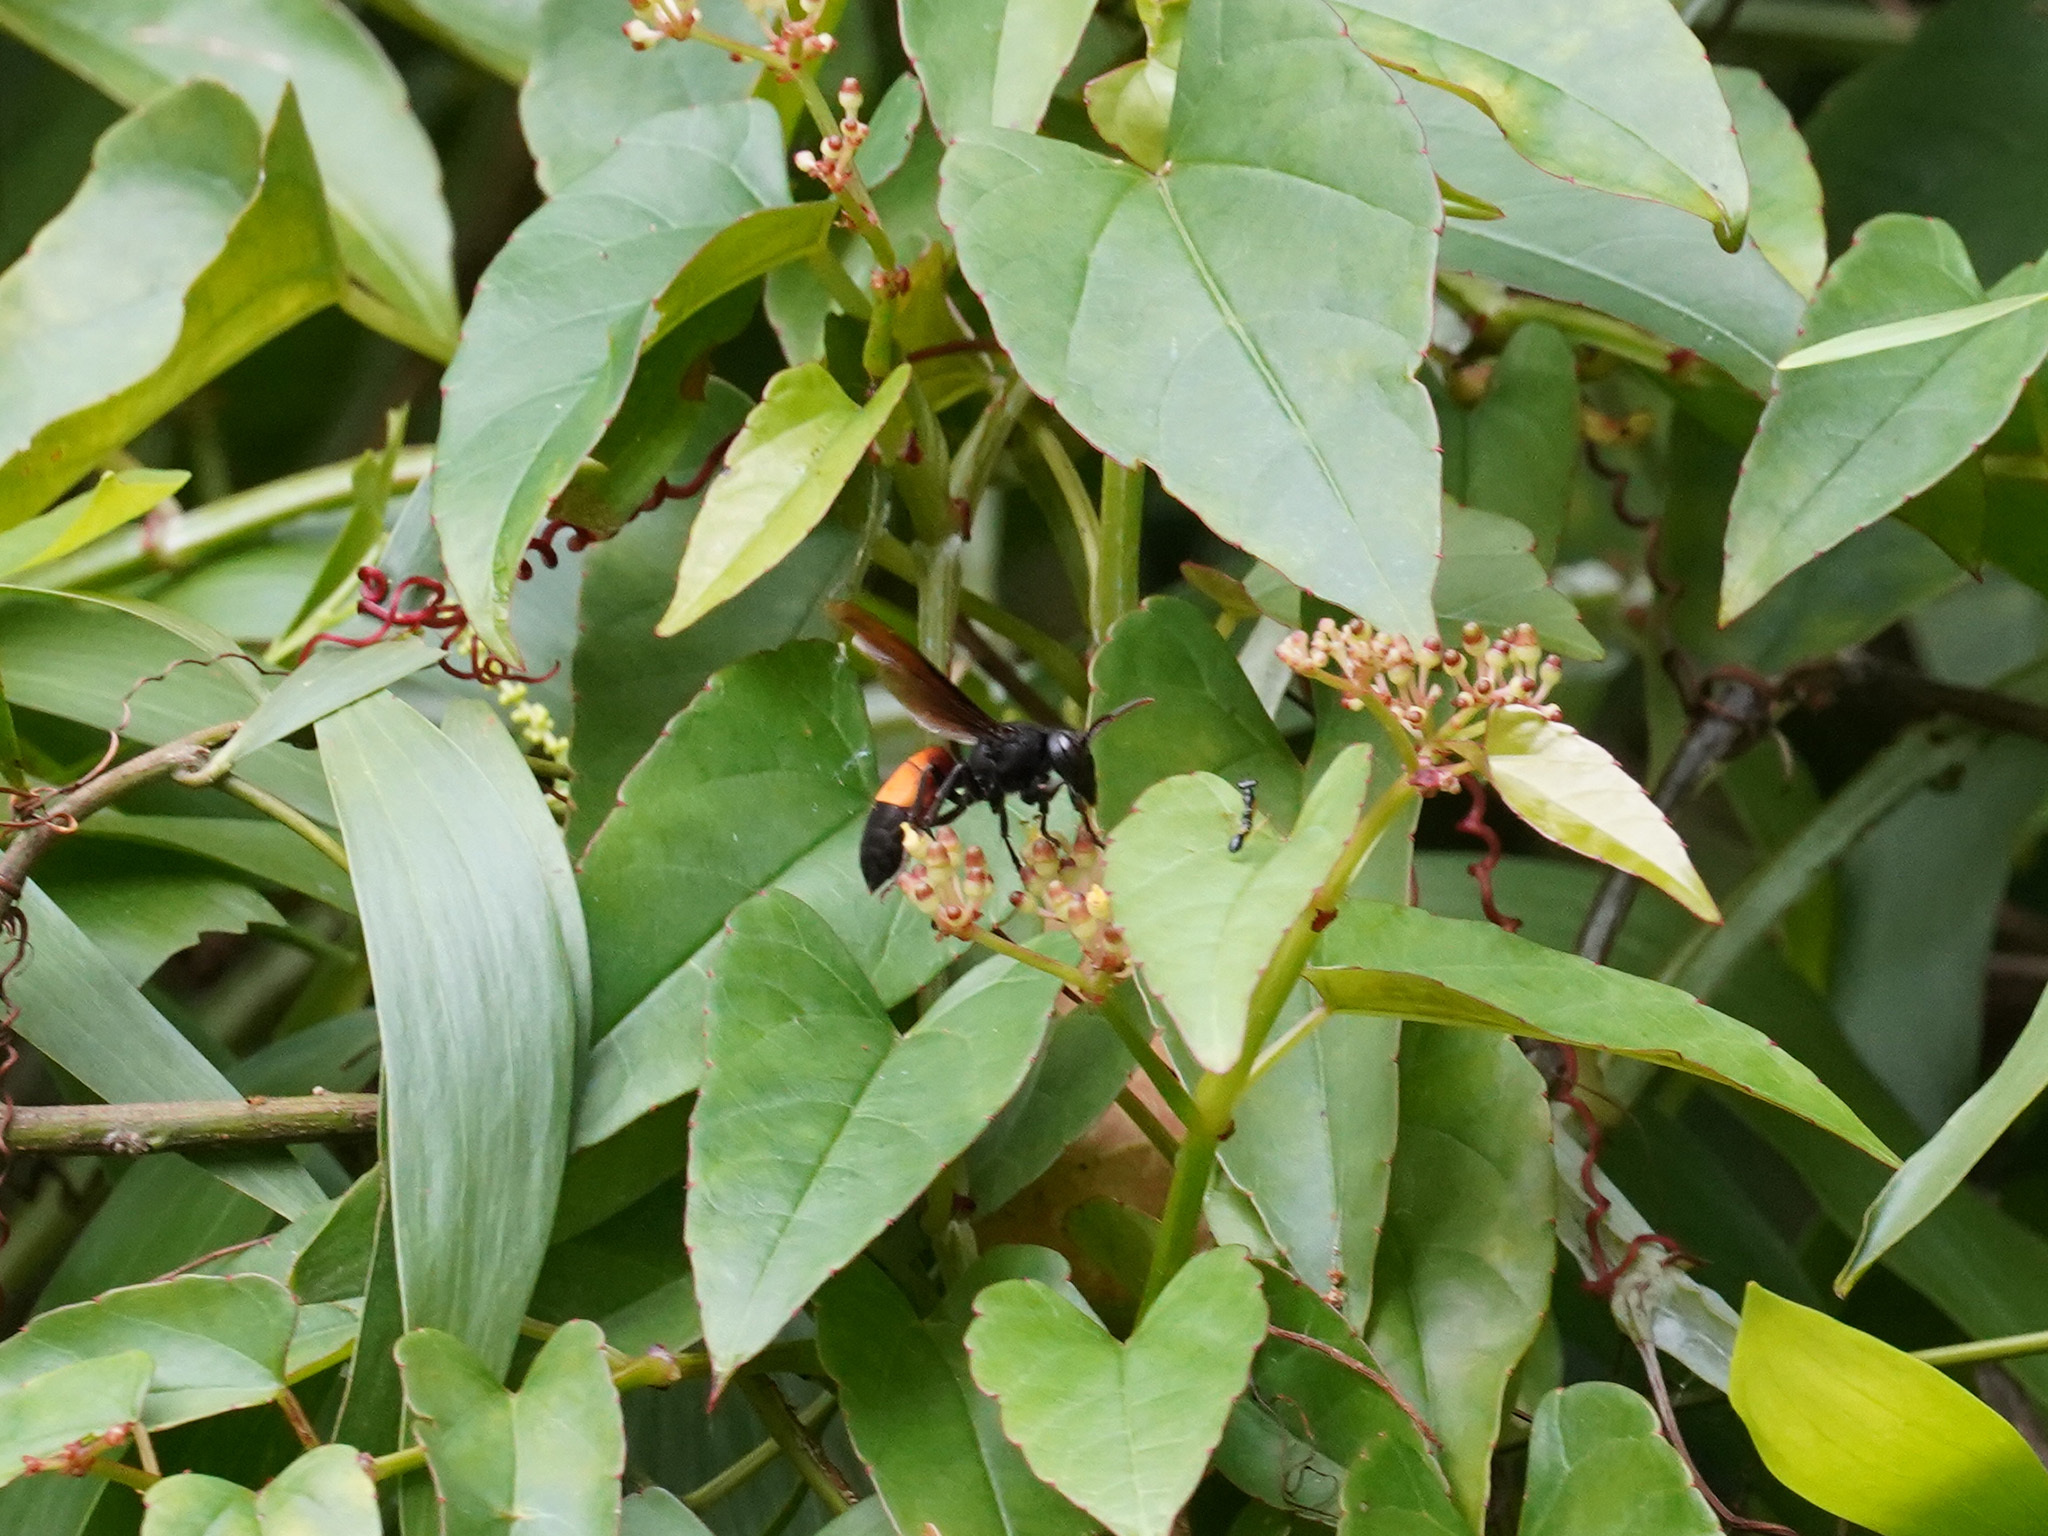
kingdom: Animalia
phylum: Arthropoda
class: Insecta
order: Hymenoptera
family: Vespidae
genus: Vespa
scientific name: Vespa affinis
